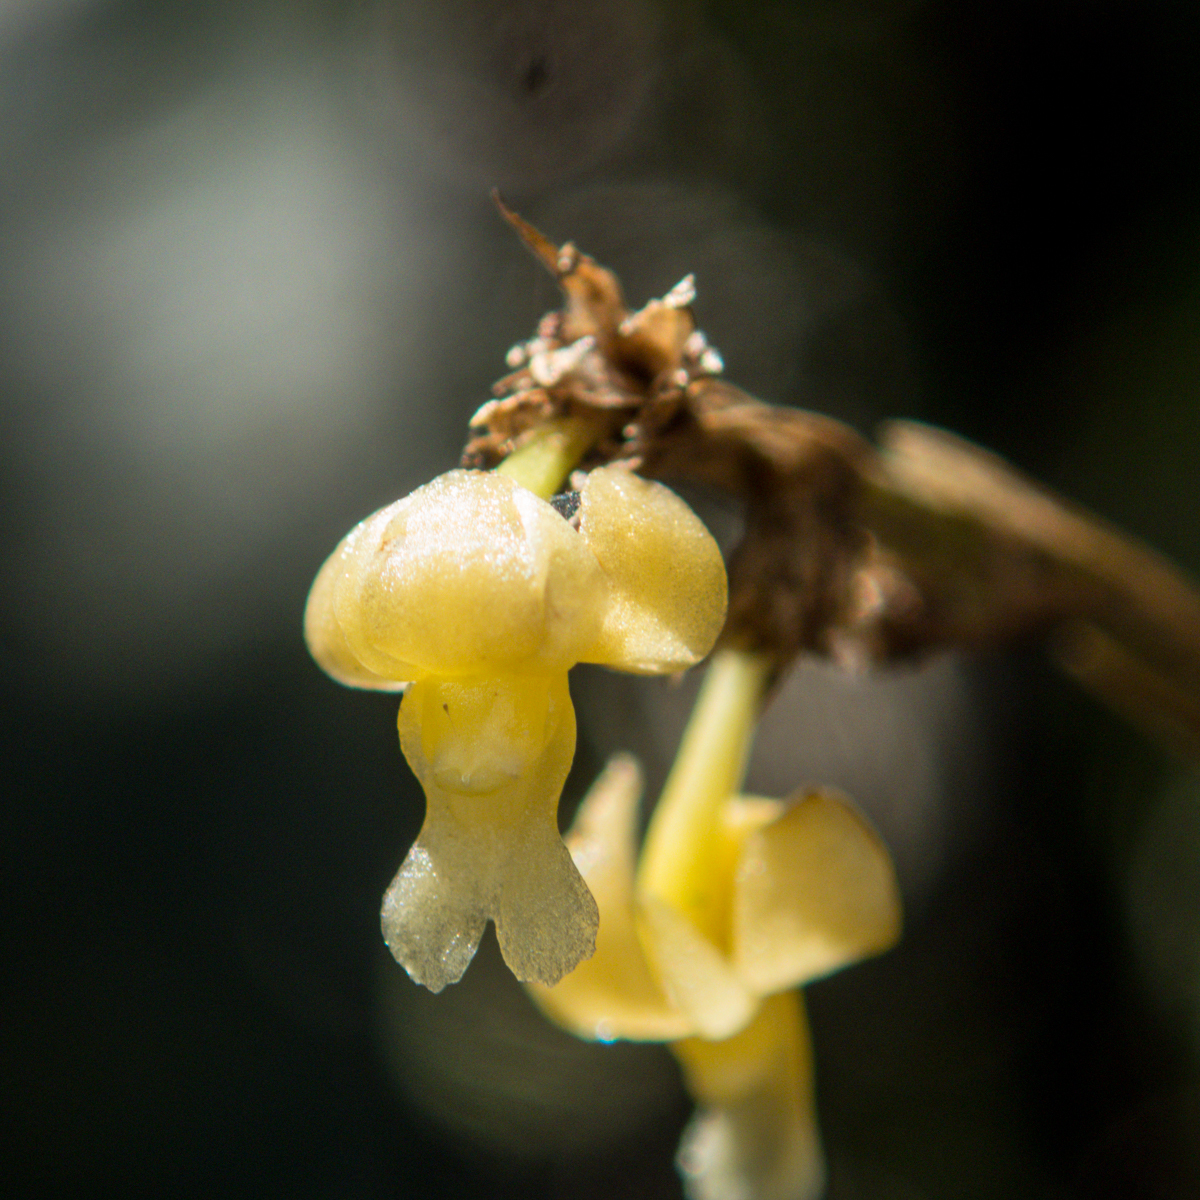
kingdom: Plantae
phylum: Tracheophyta
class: Liliopsida
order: Asparagales
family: Orchidaceae
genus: Dendrobium
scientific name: Dendrobium aloifolium
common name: Aloe-like dendrobium
